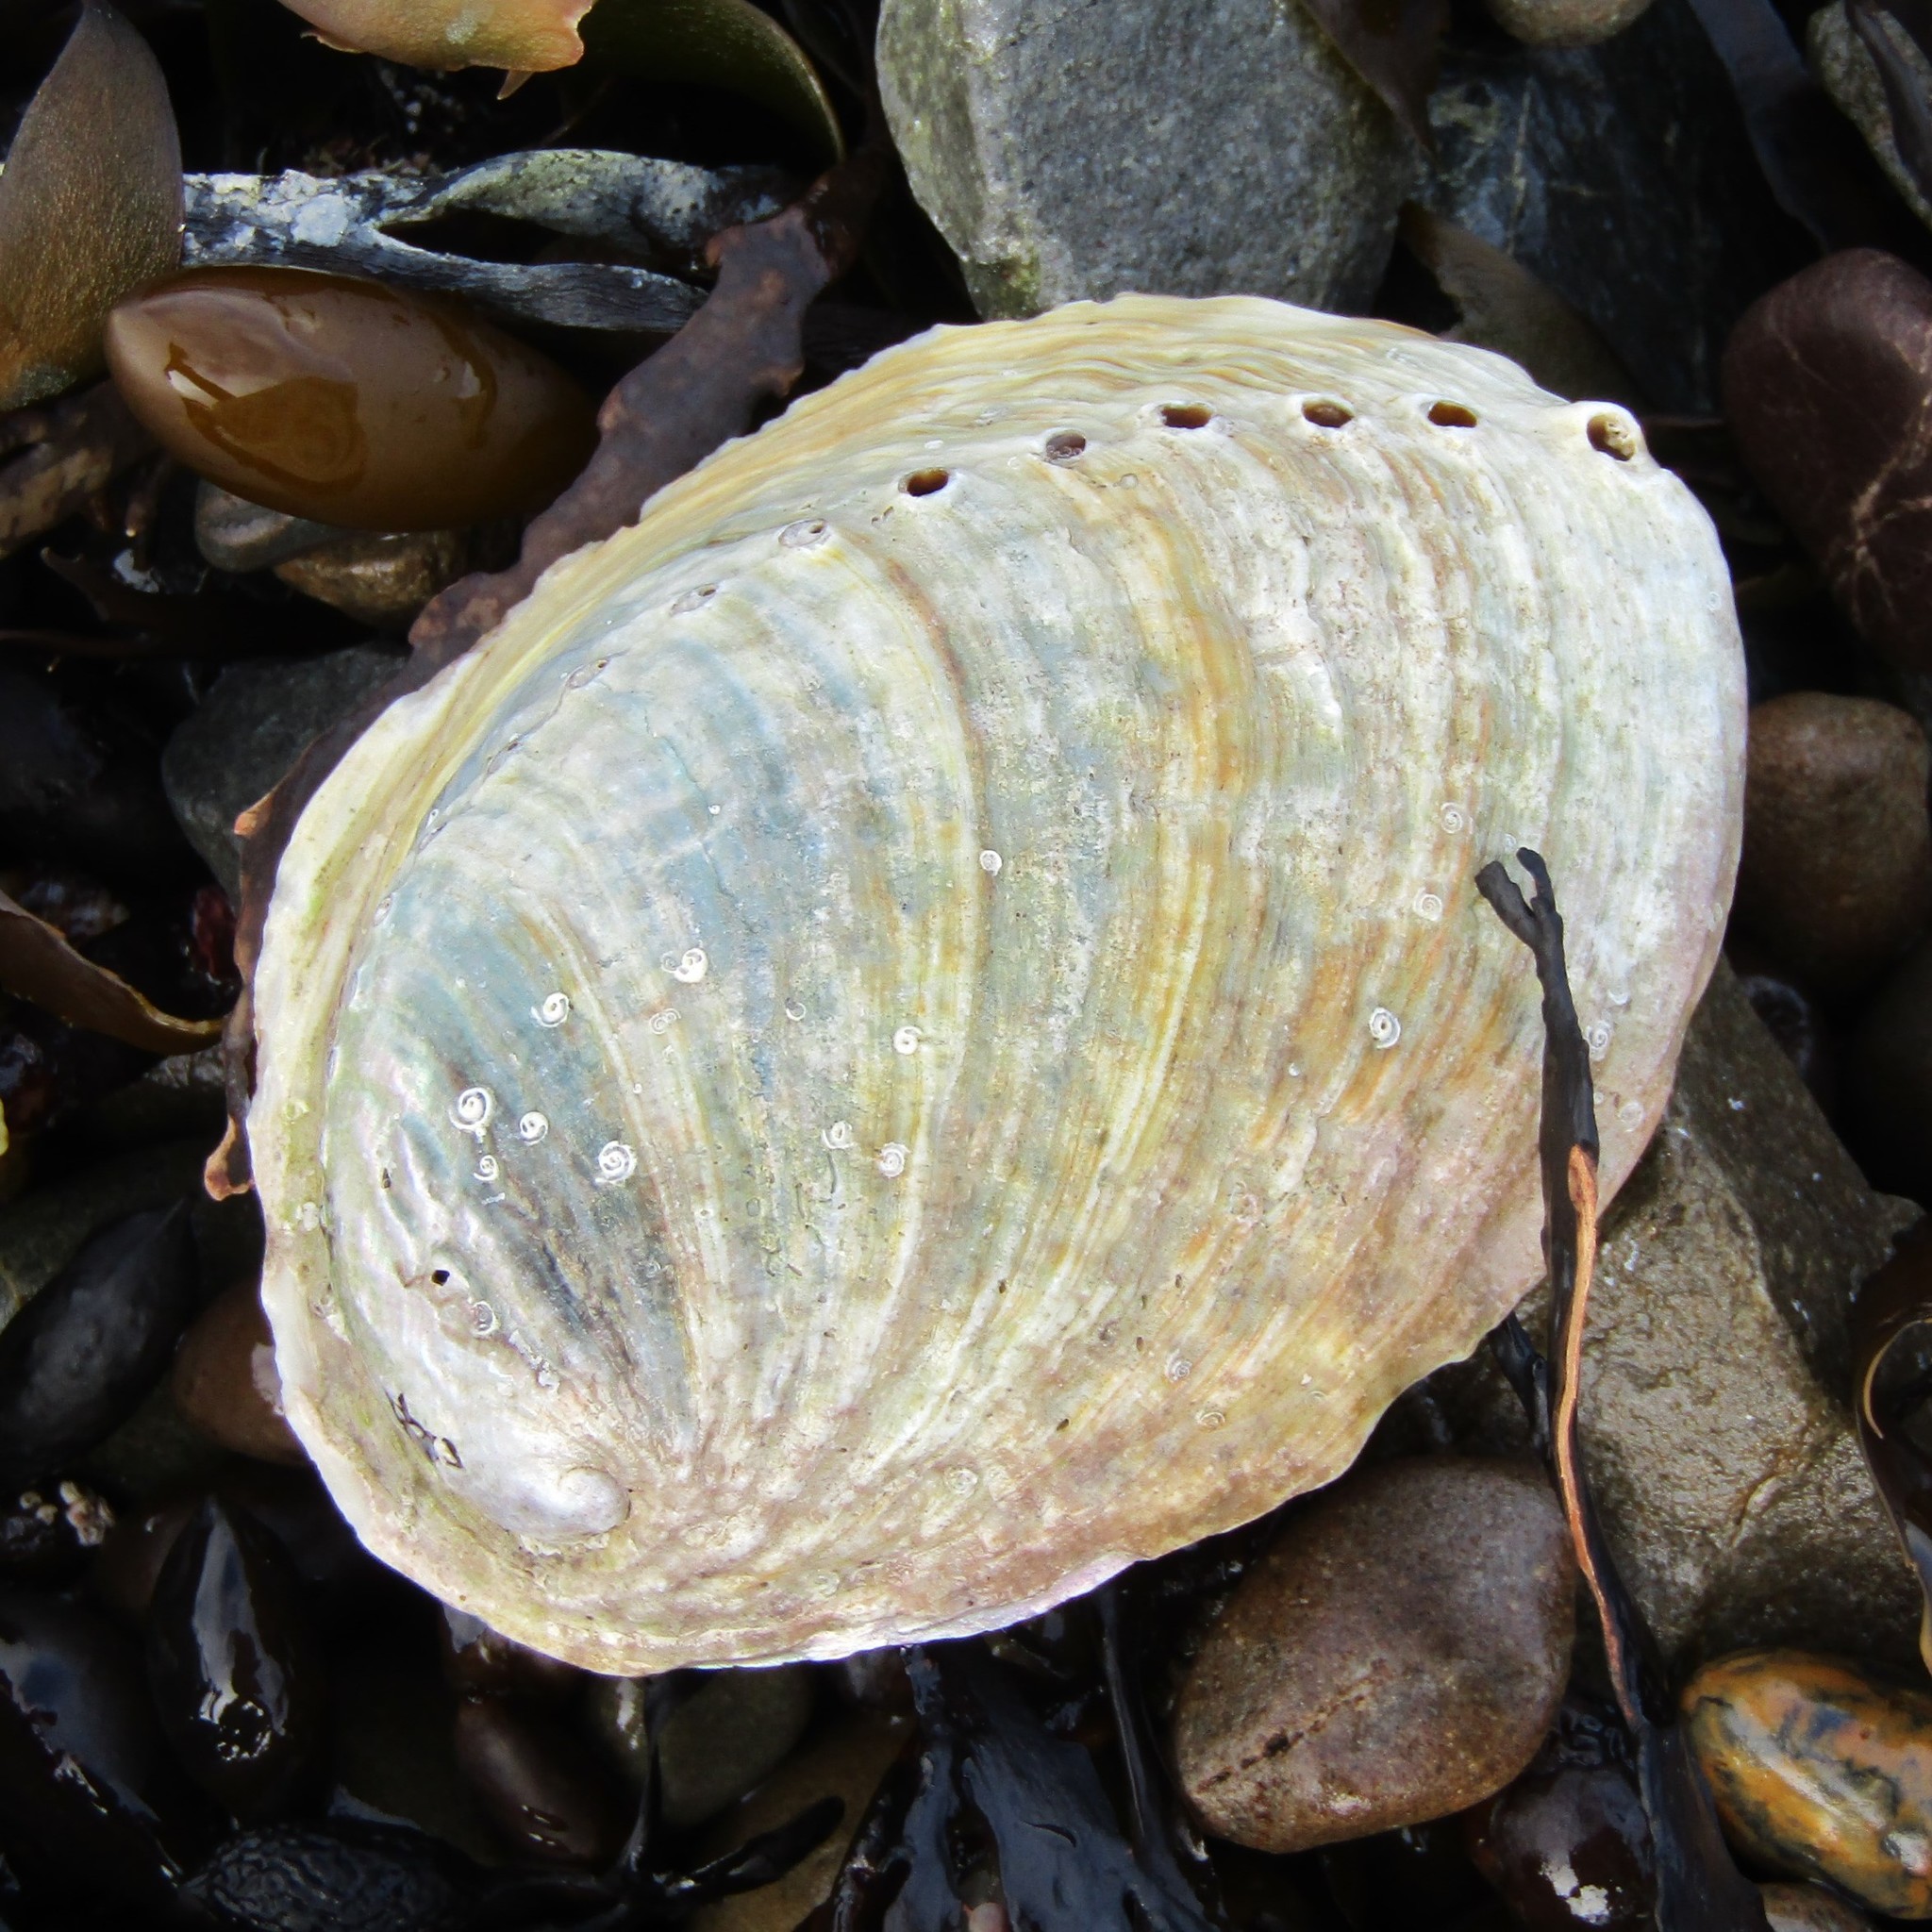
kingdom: Animalia
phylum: Mollusca
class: Gastropoda
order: Lepetellida
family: Haliotidae
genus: Haliotis
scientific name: Haliotis iris
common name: Abalone
